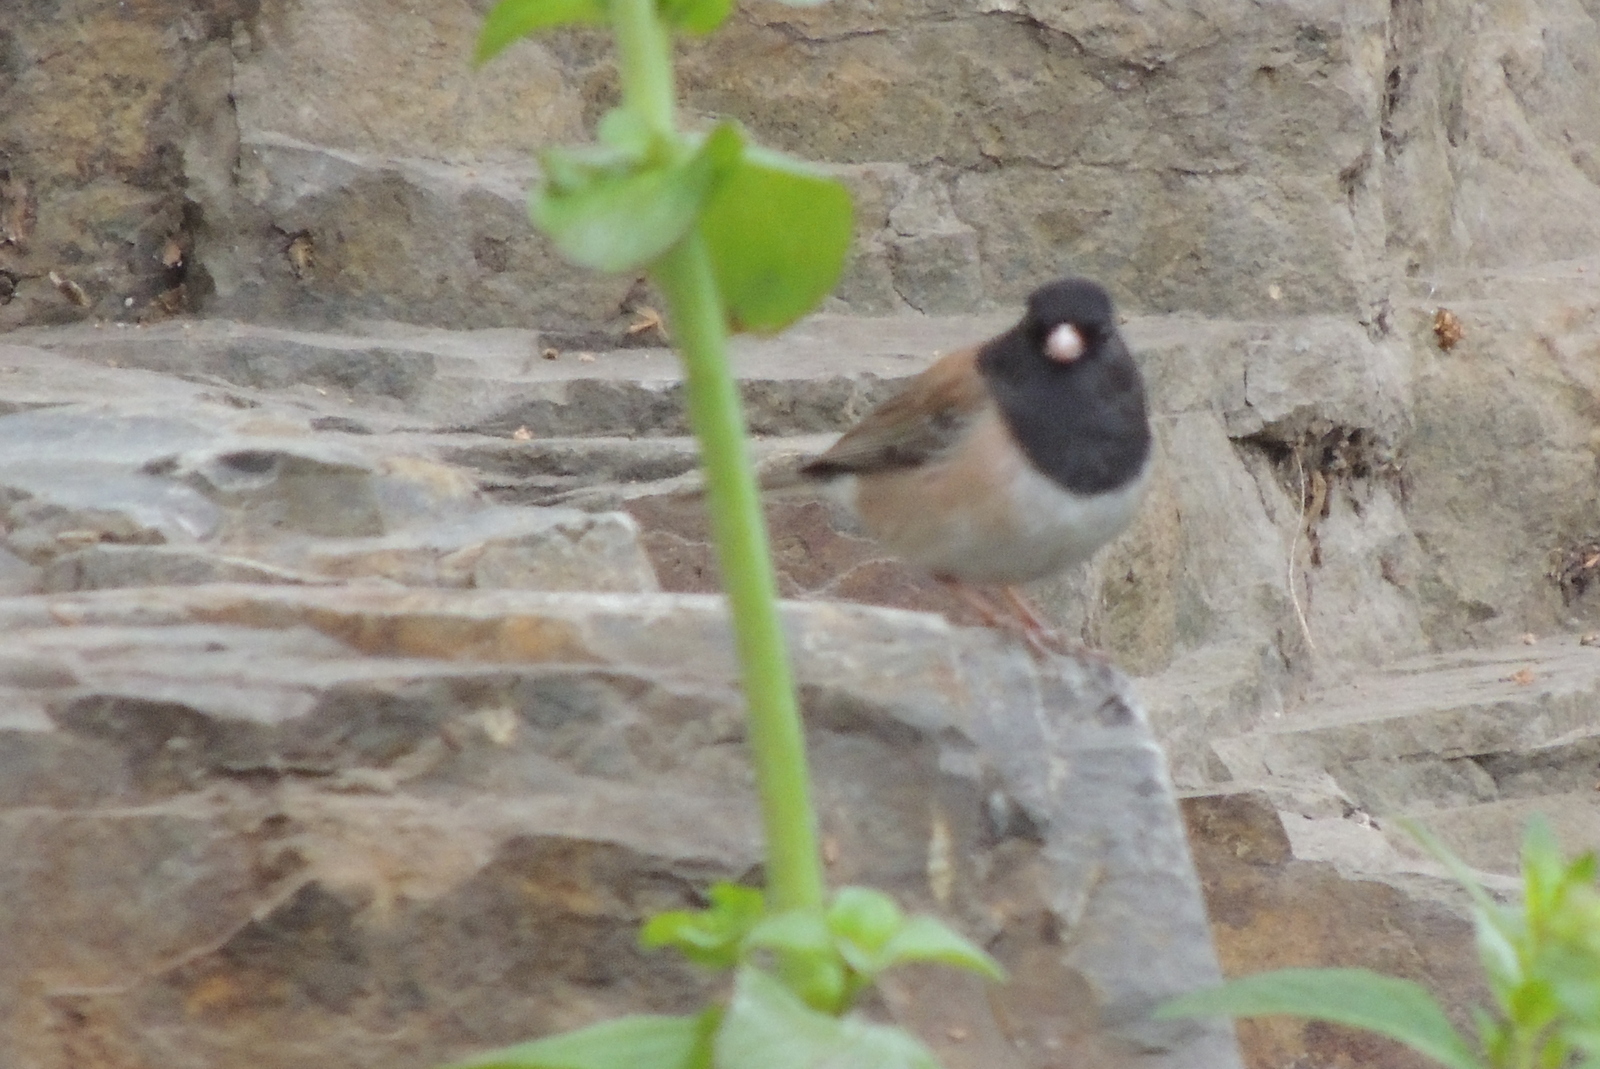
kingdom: Animalia
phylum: Chordata
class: Aves
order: Passeriformes
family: Passerellidae
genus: Junco
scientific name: Junco hyemalis
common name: Dark-eyed junco
